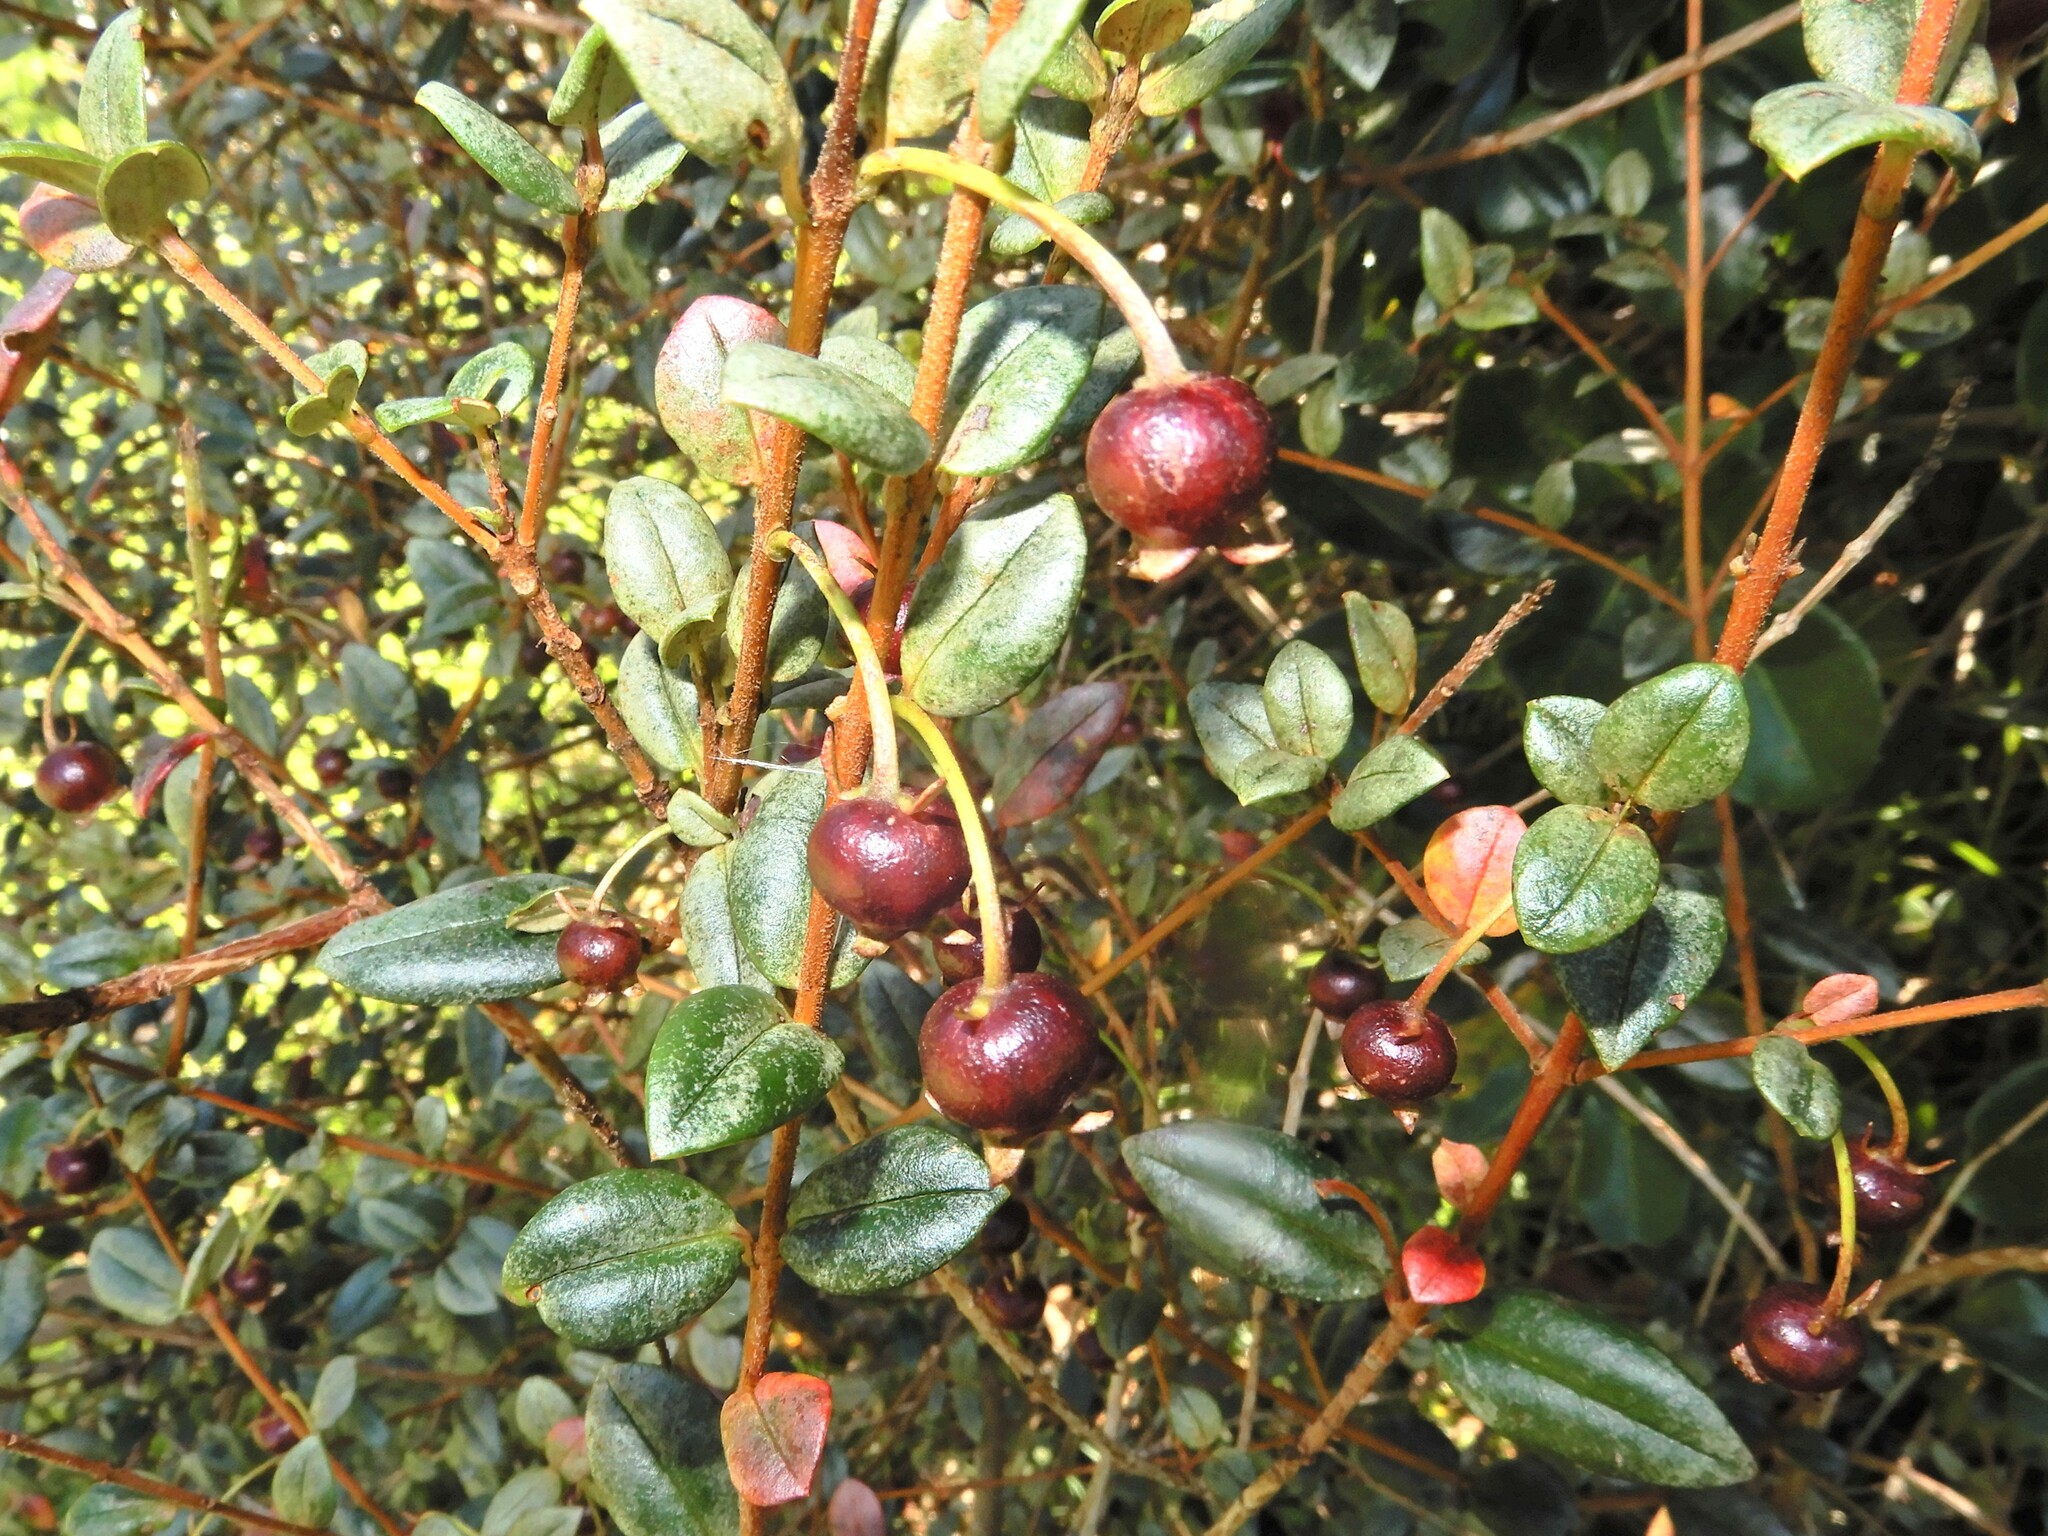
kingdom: Plantae
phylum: Tracheophyta
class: Magnoliopsida
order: Myrtales
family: Myrtaceae
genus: Ugni
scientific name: Ugni molinae
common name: Chilean-guava
